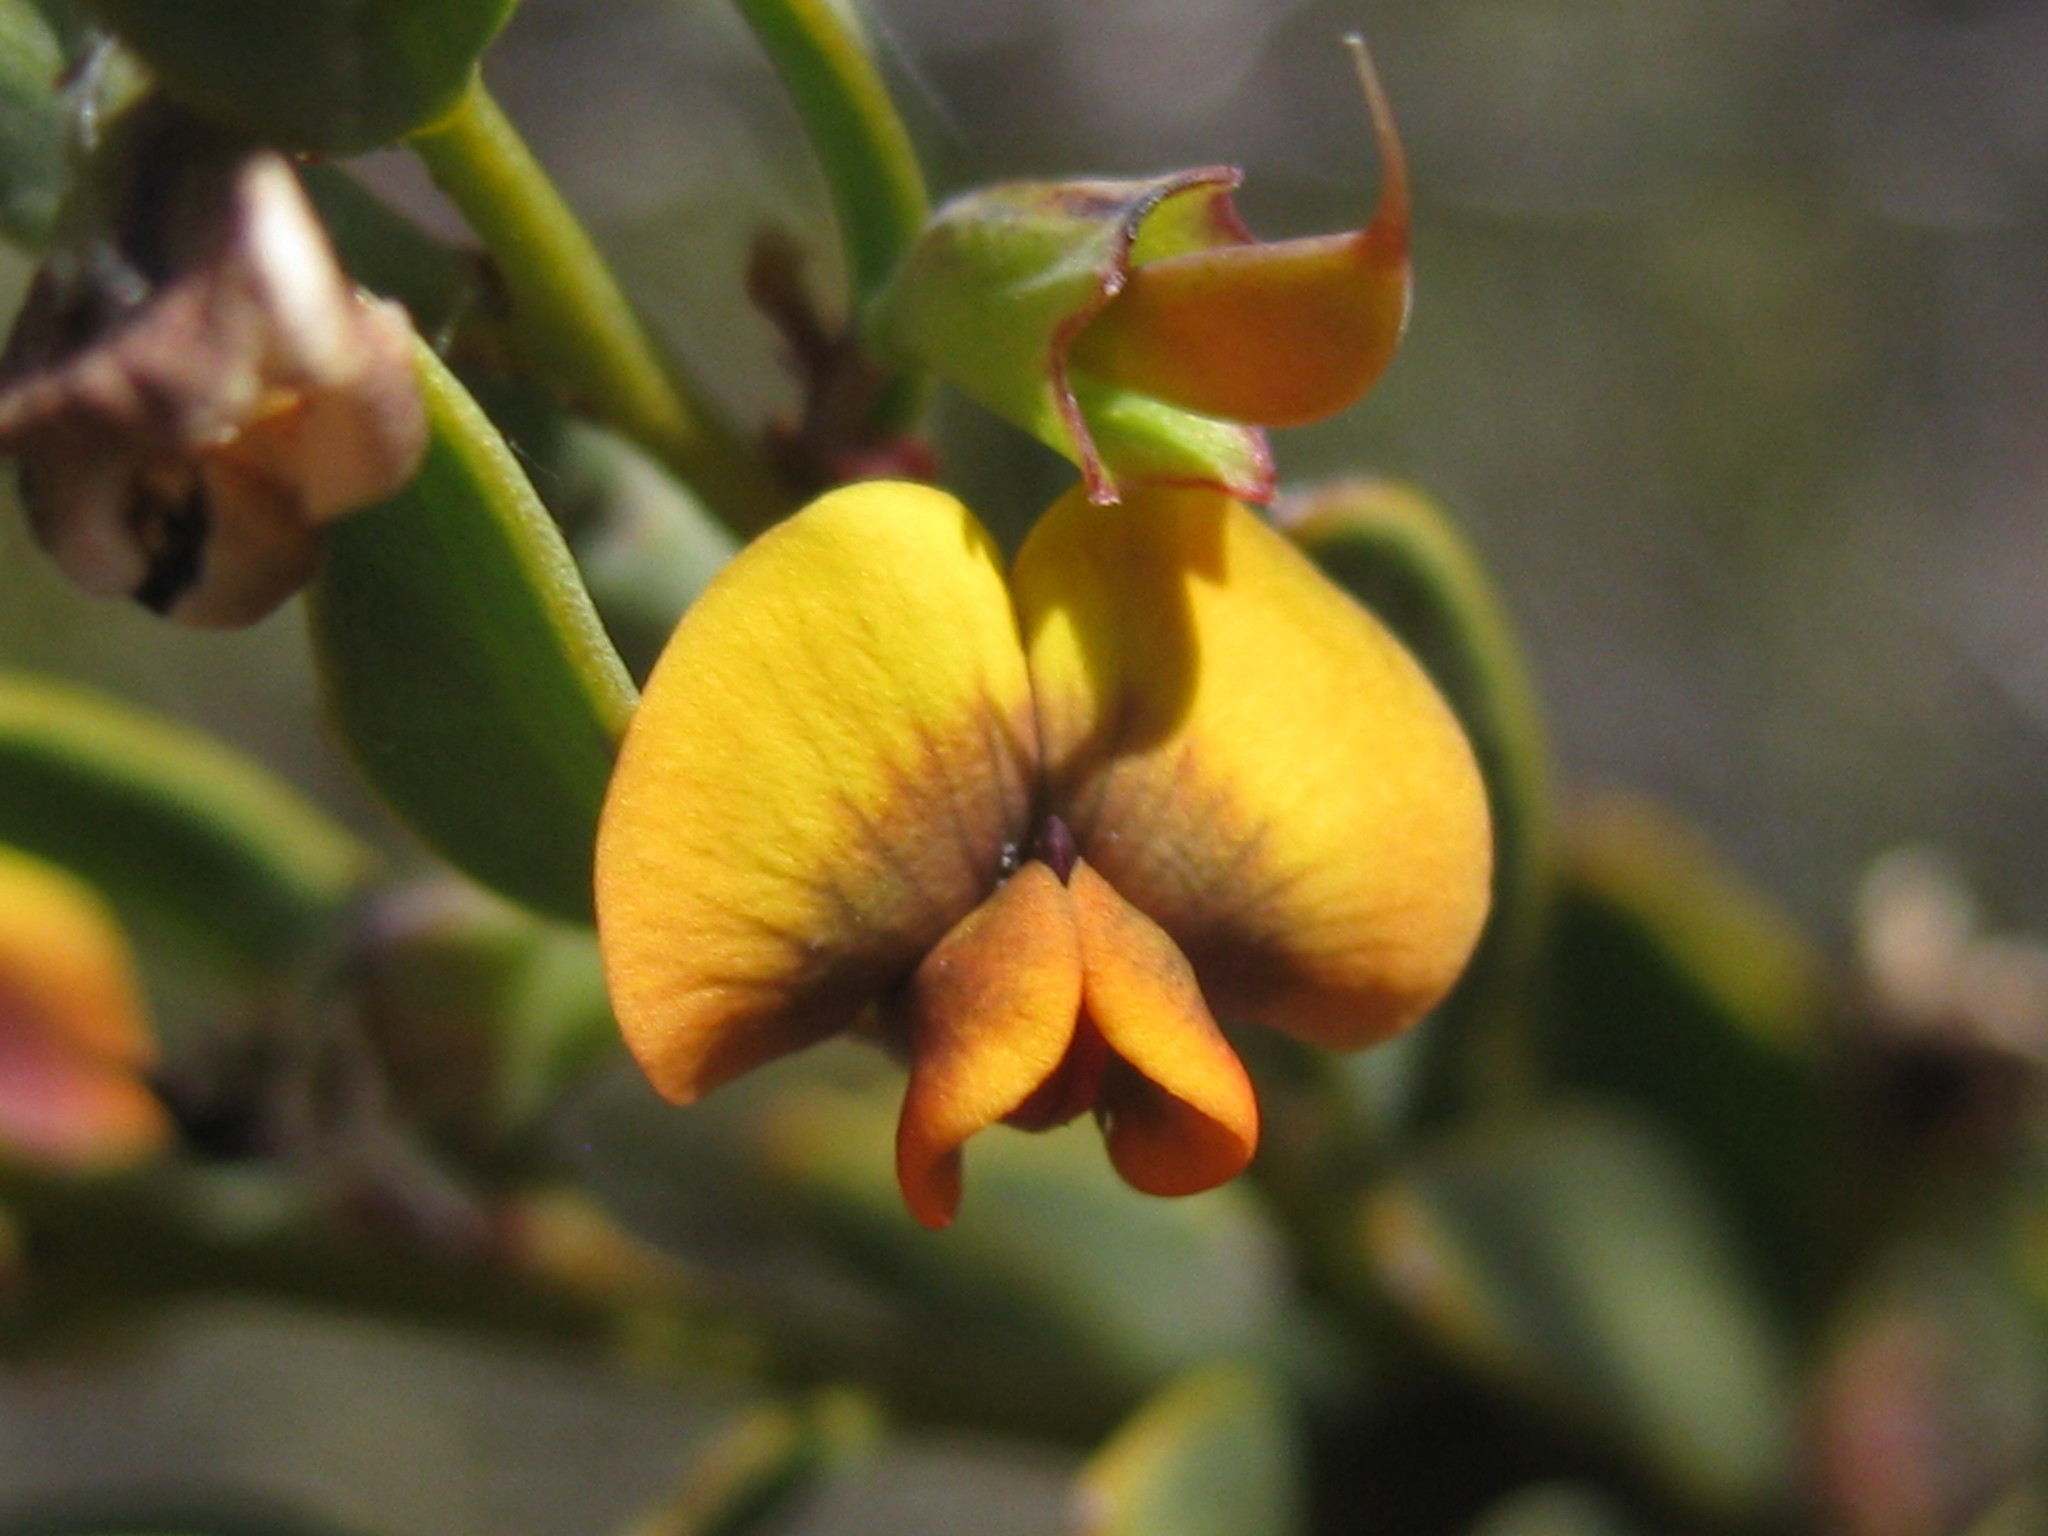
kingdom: Plantae
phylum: Tracheophyta
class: Magnoliopsida
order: Fabales
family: Fabaceae
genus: Daviesia
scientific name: Daviesia argillacea
